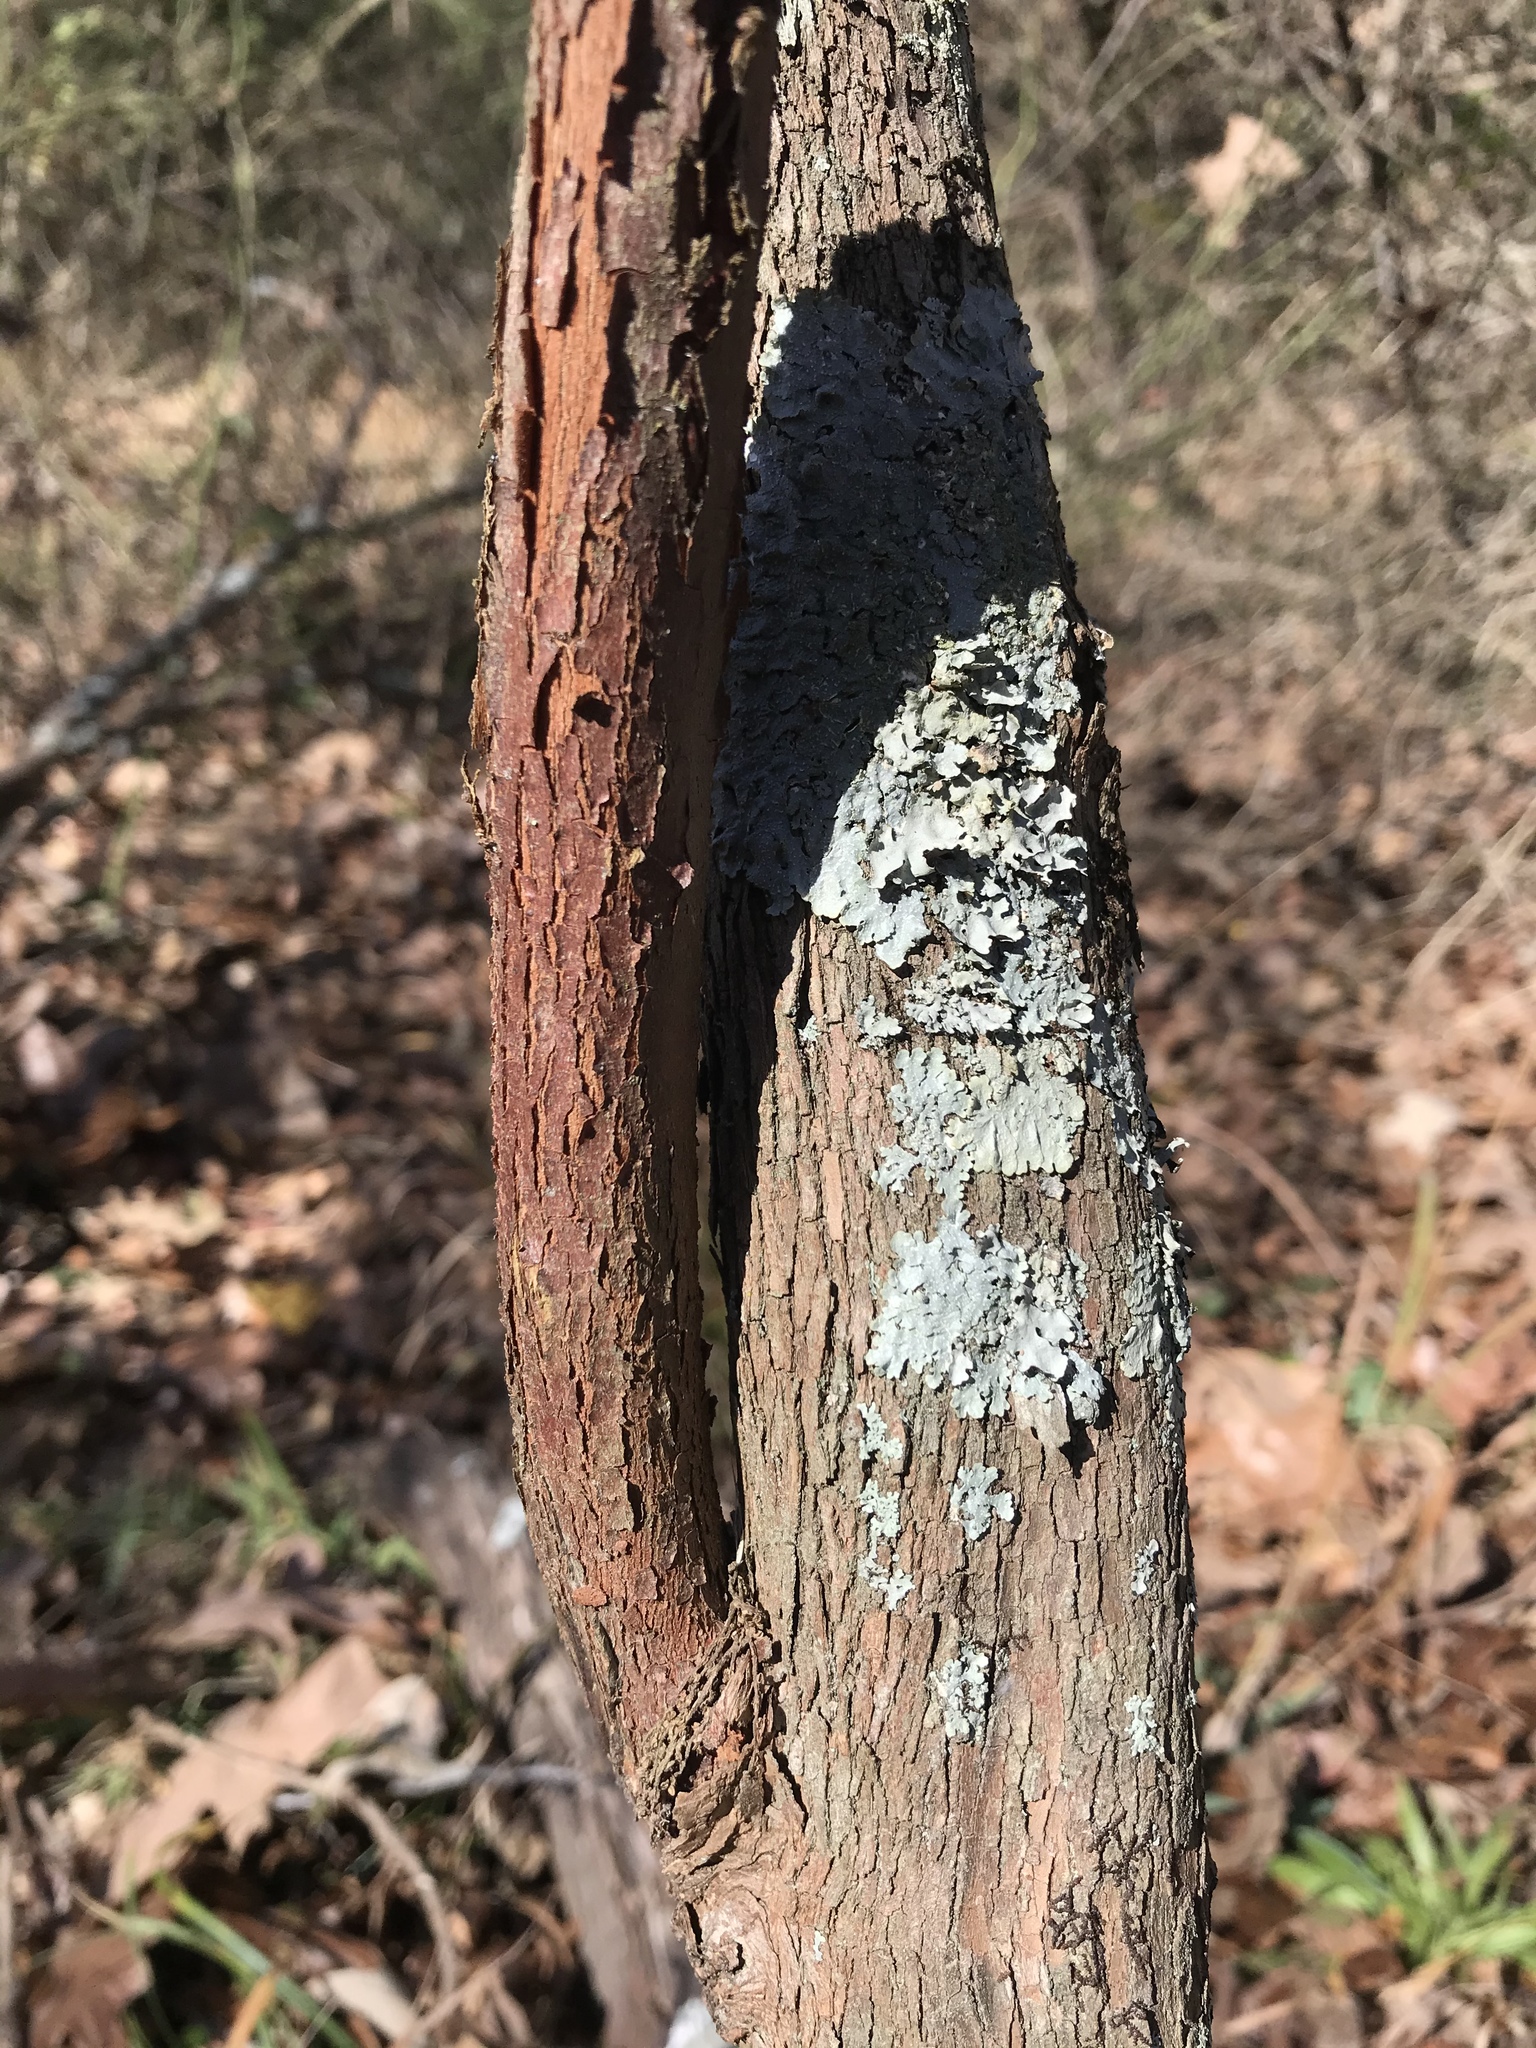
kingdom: Plantae
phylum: Tracheophyta
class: Magnoliopsida
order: Ericales
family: Ericaceae
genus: Vaccinium
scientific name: Vaccinium arboreum
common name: Farkleberry
